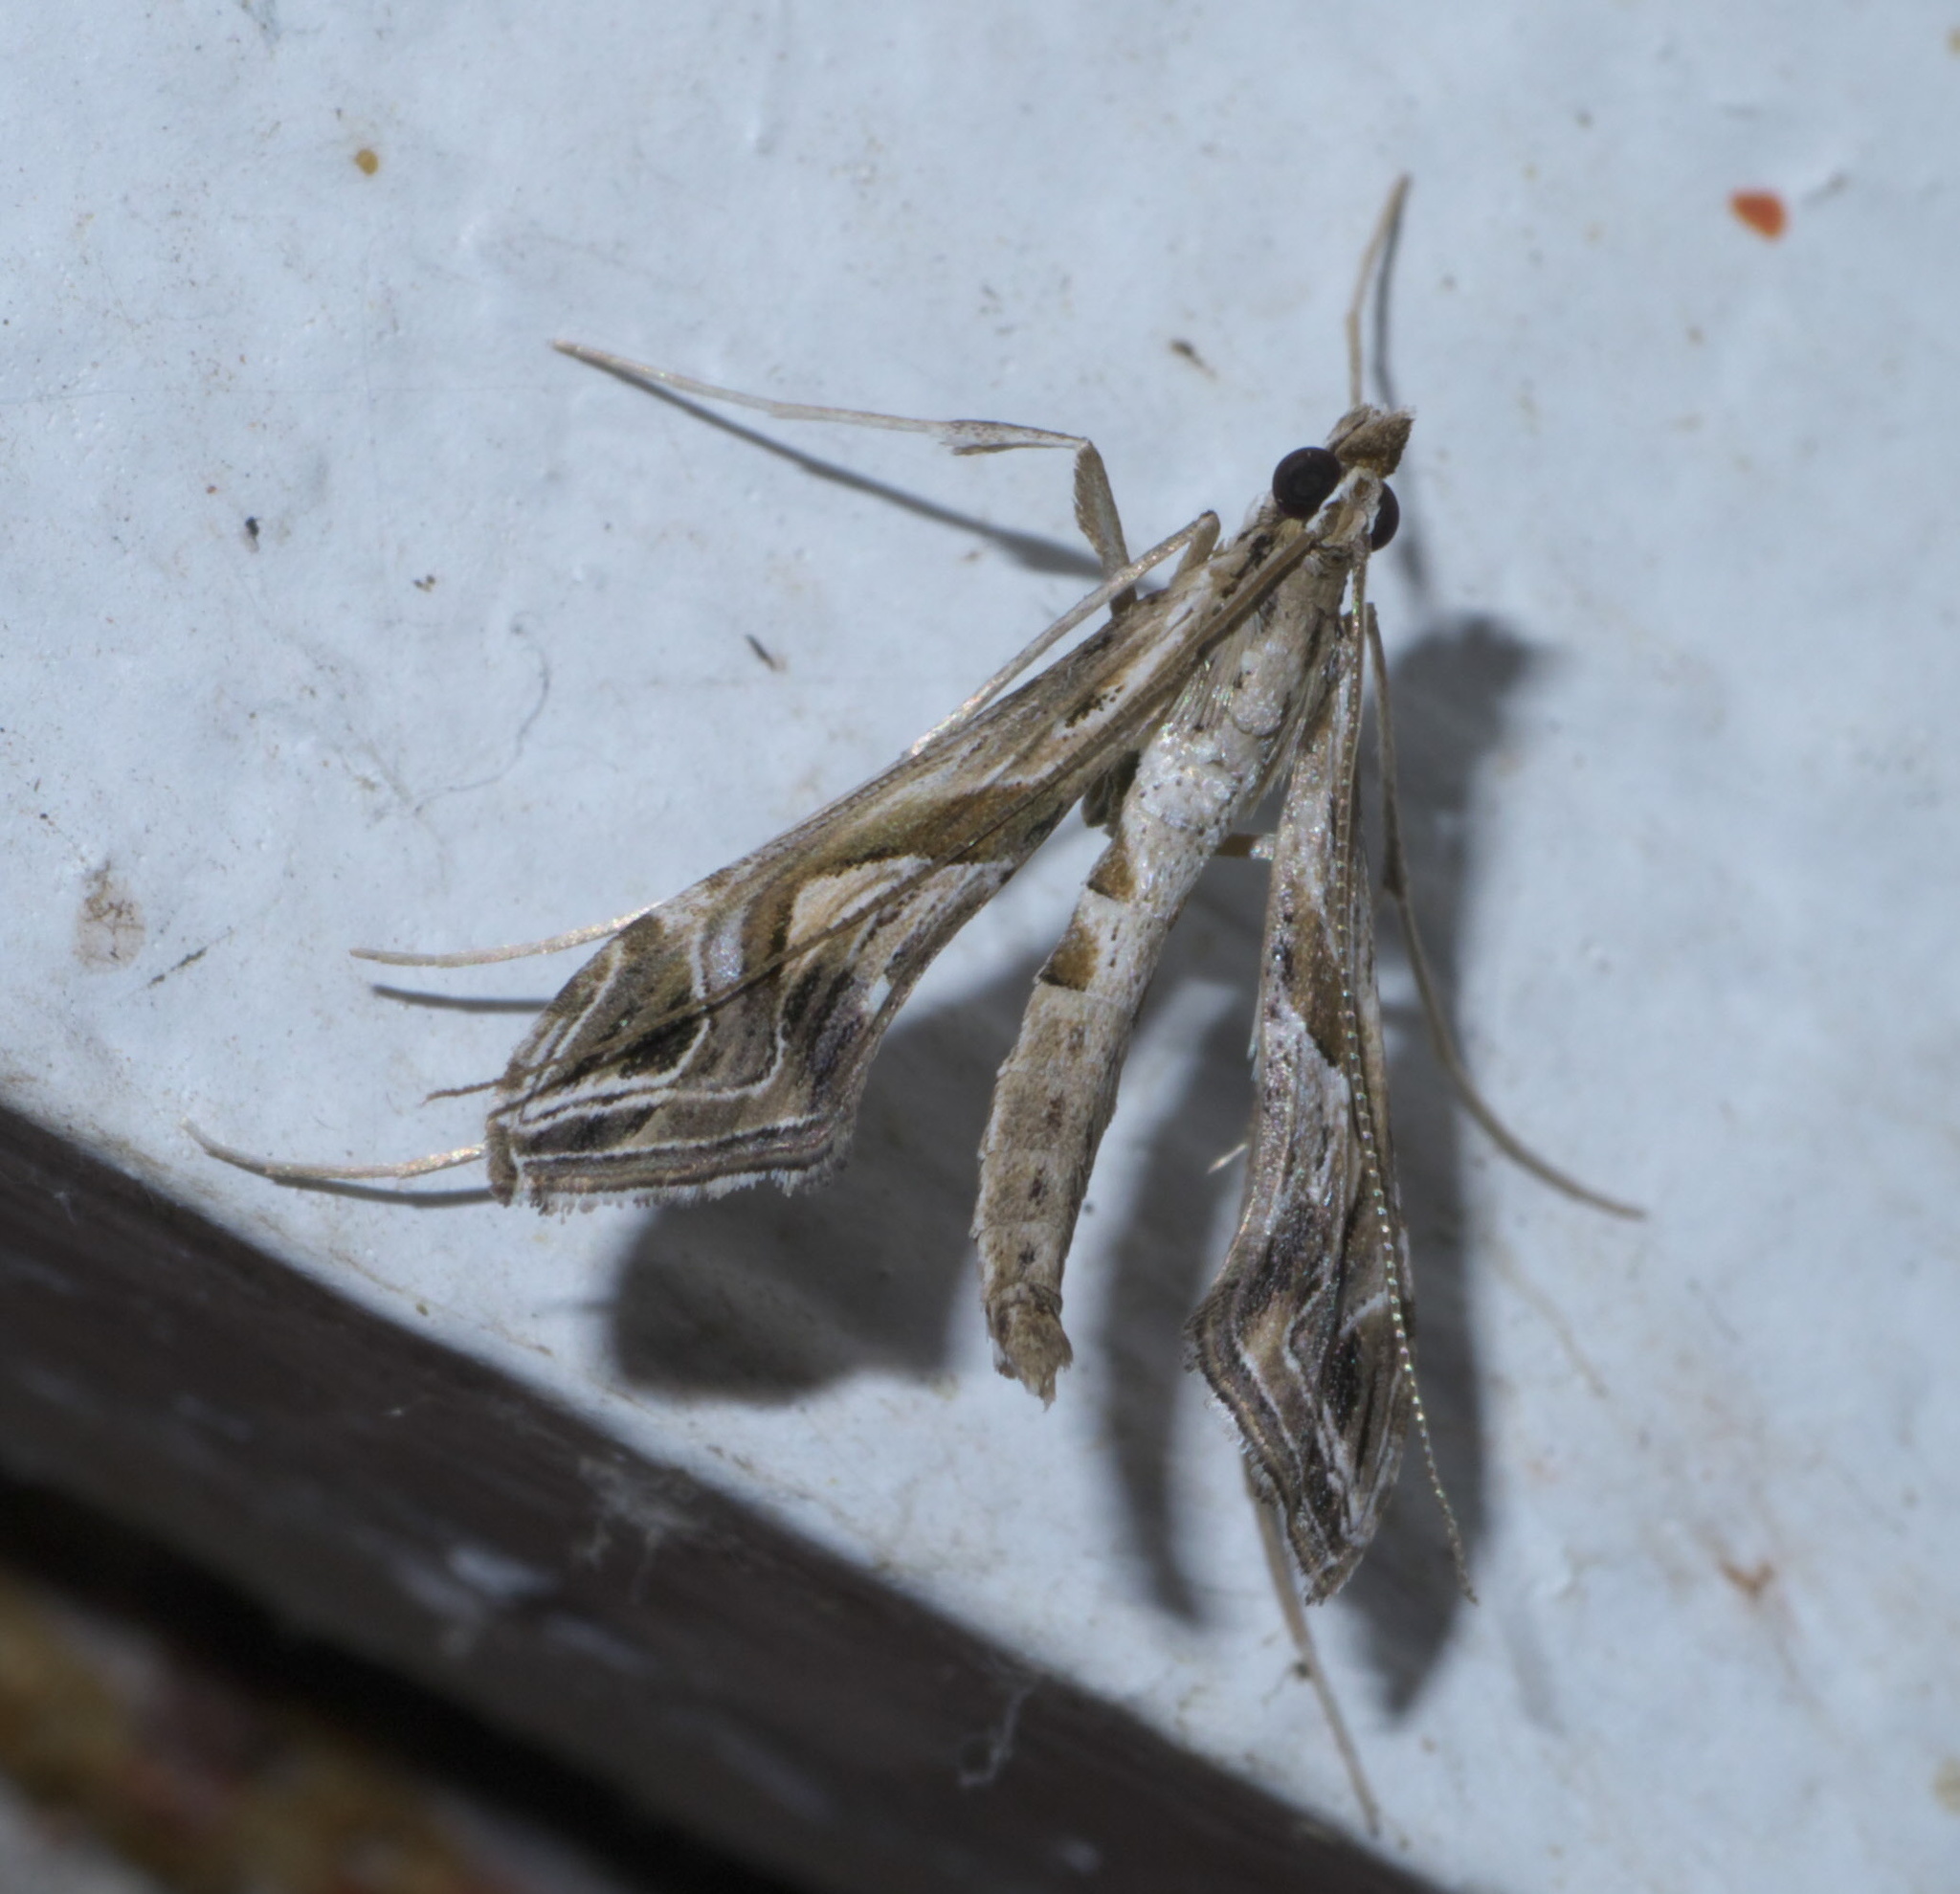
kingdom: Animalia
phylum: Arthropoda
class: Insecta
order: Lepidoptera
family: Crambidae
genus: Lineodes
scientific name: Lineodes integra
